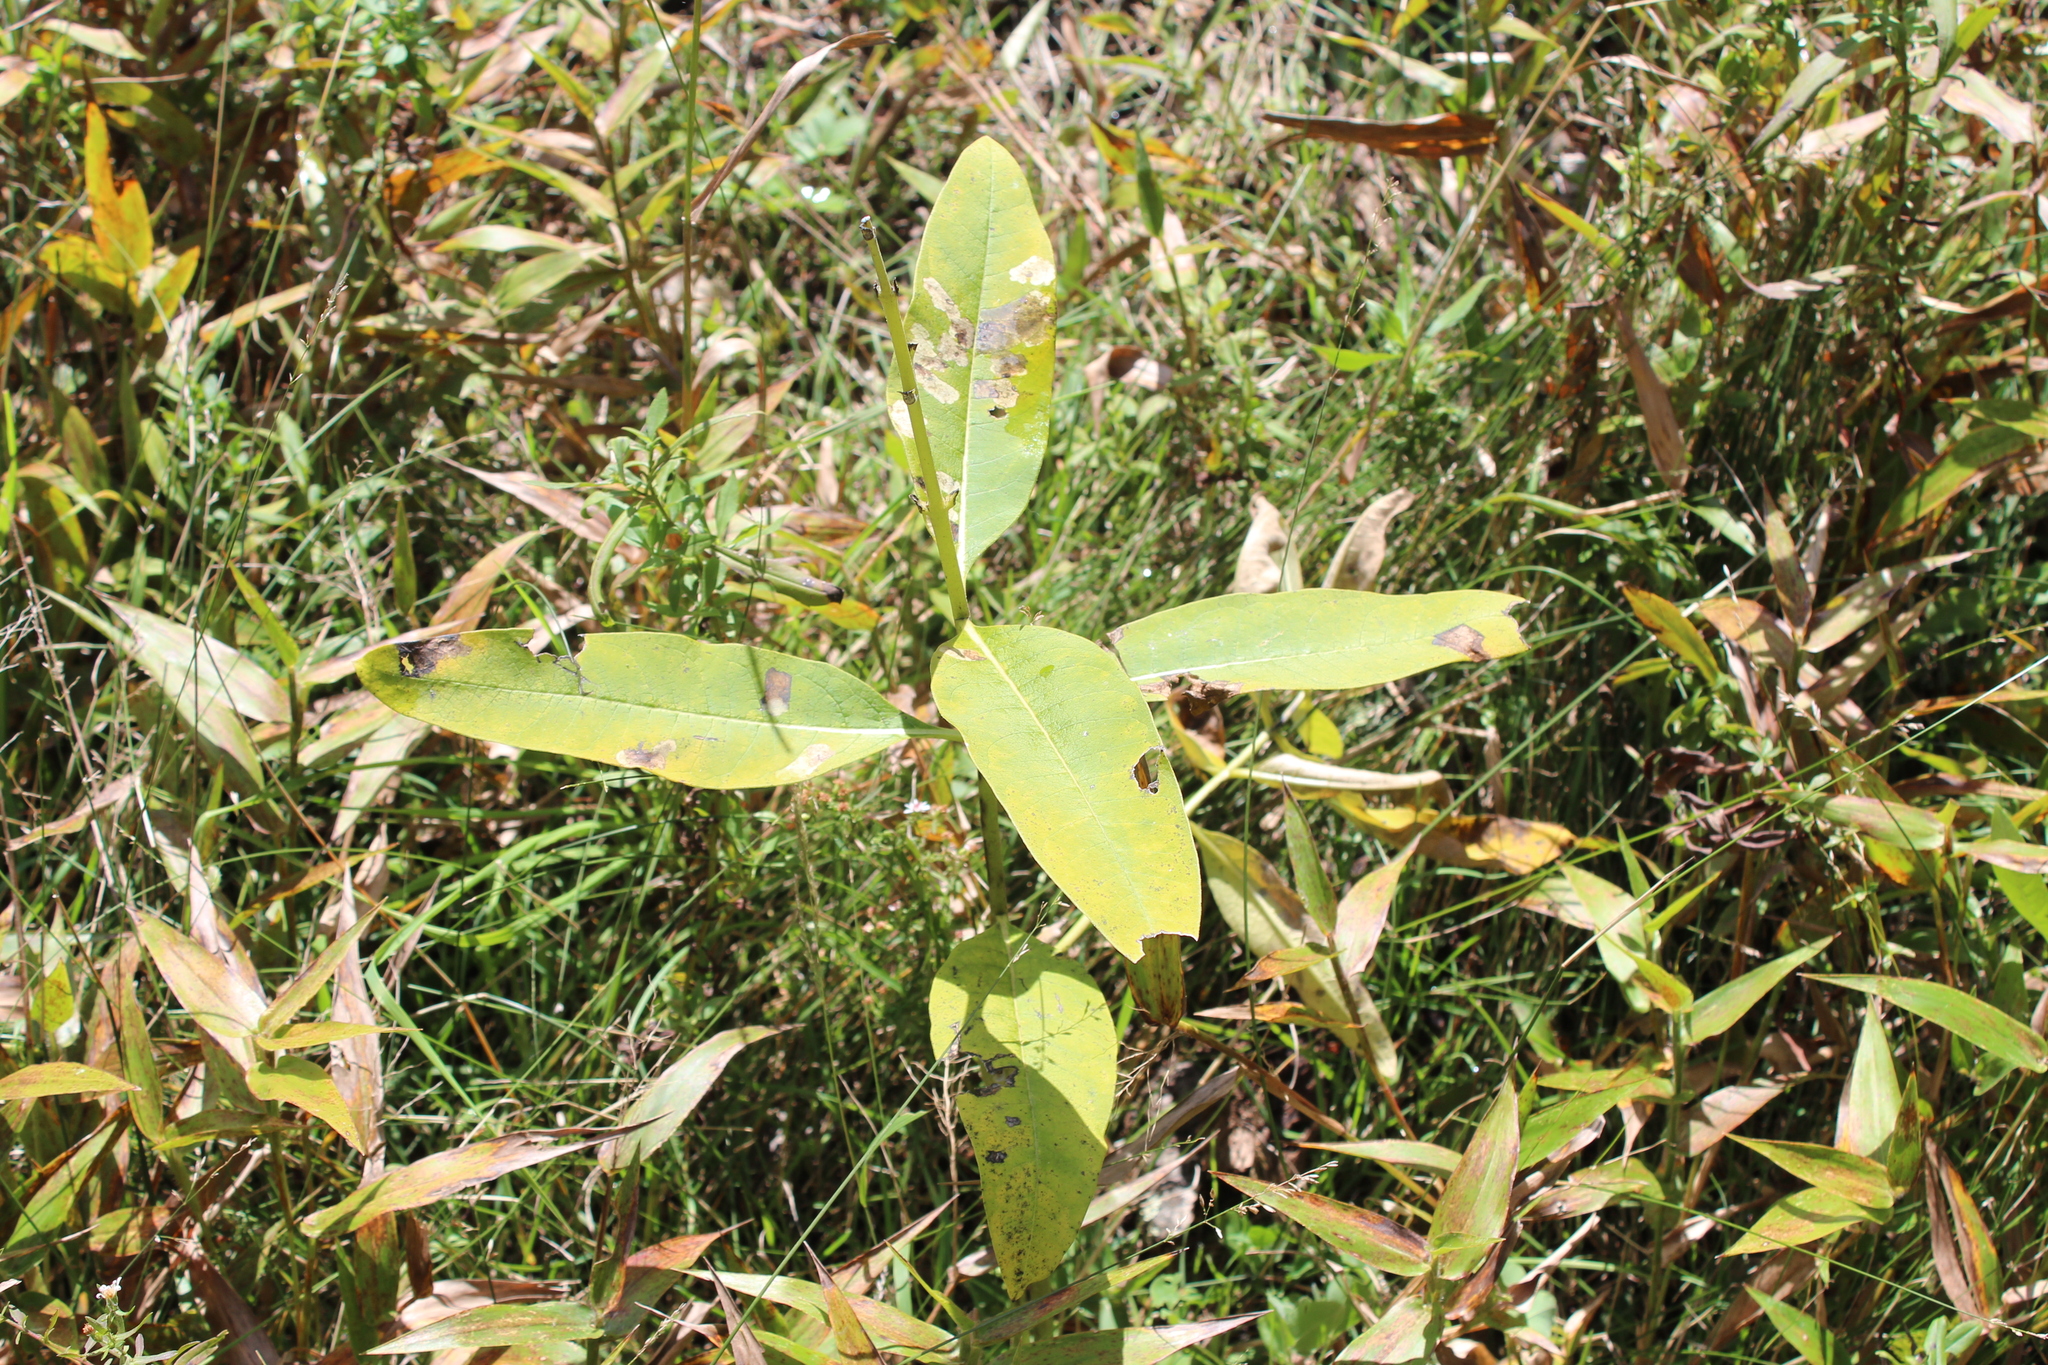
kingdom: Plantae
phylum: Tracheophyta
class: Magnoliopsida
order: Gentianales
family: Apocynaceae
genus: Asclepias
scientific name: Asclepias syriaca
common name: Common milkweed
